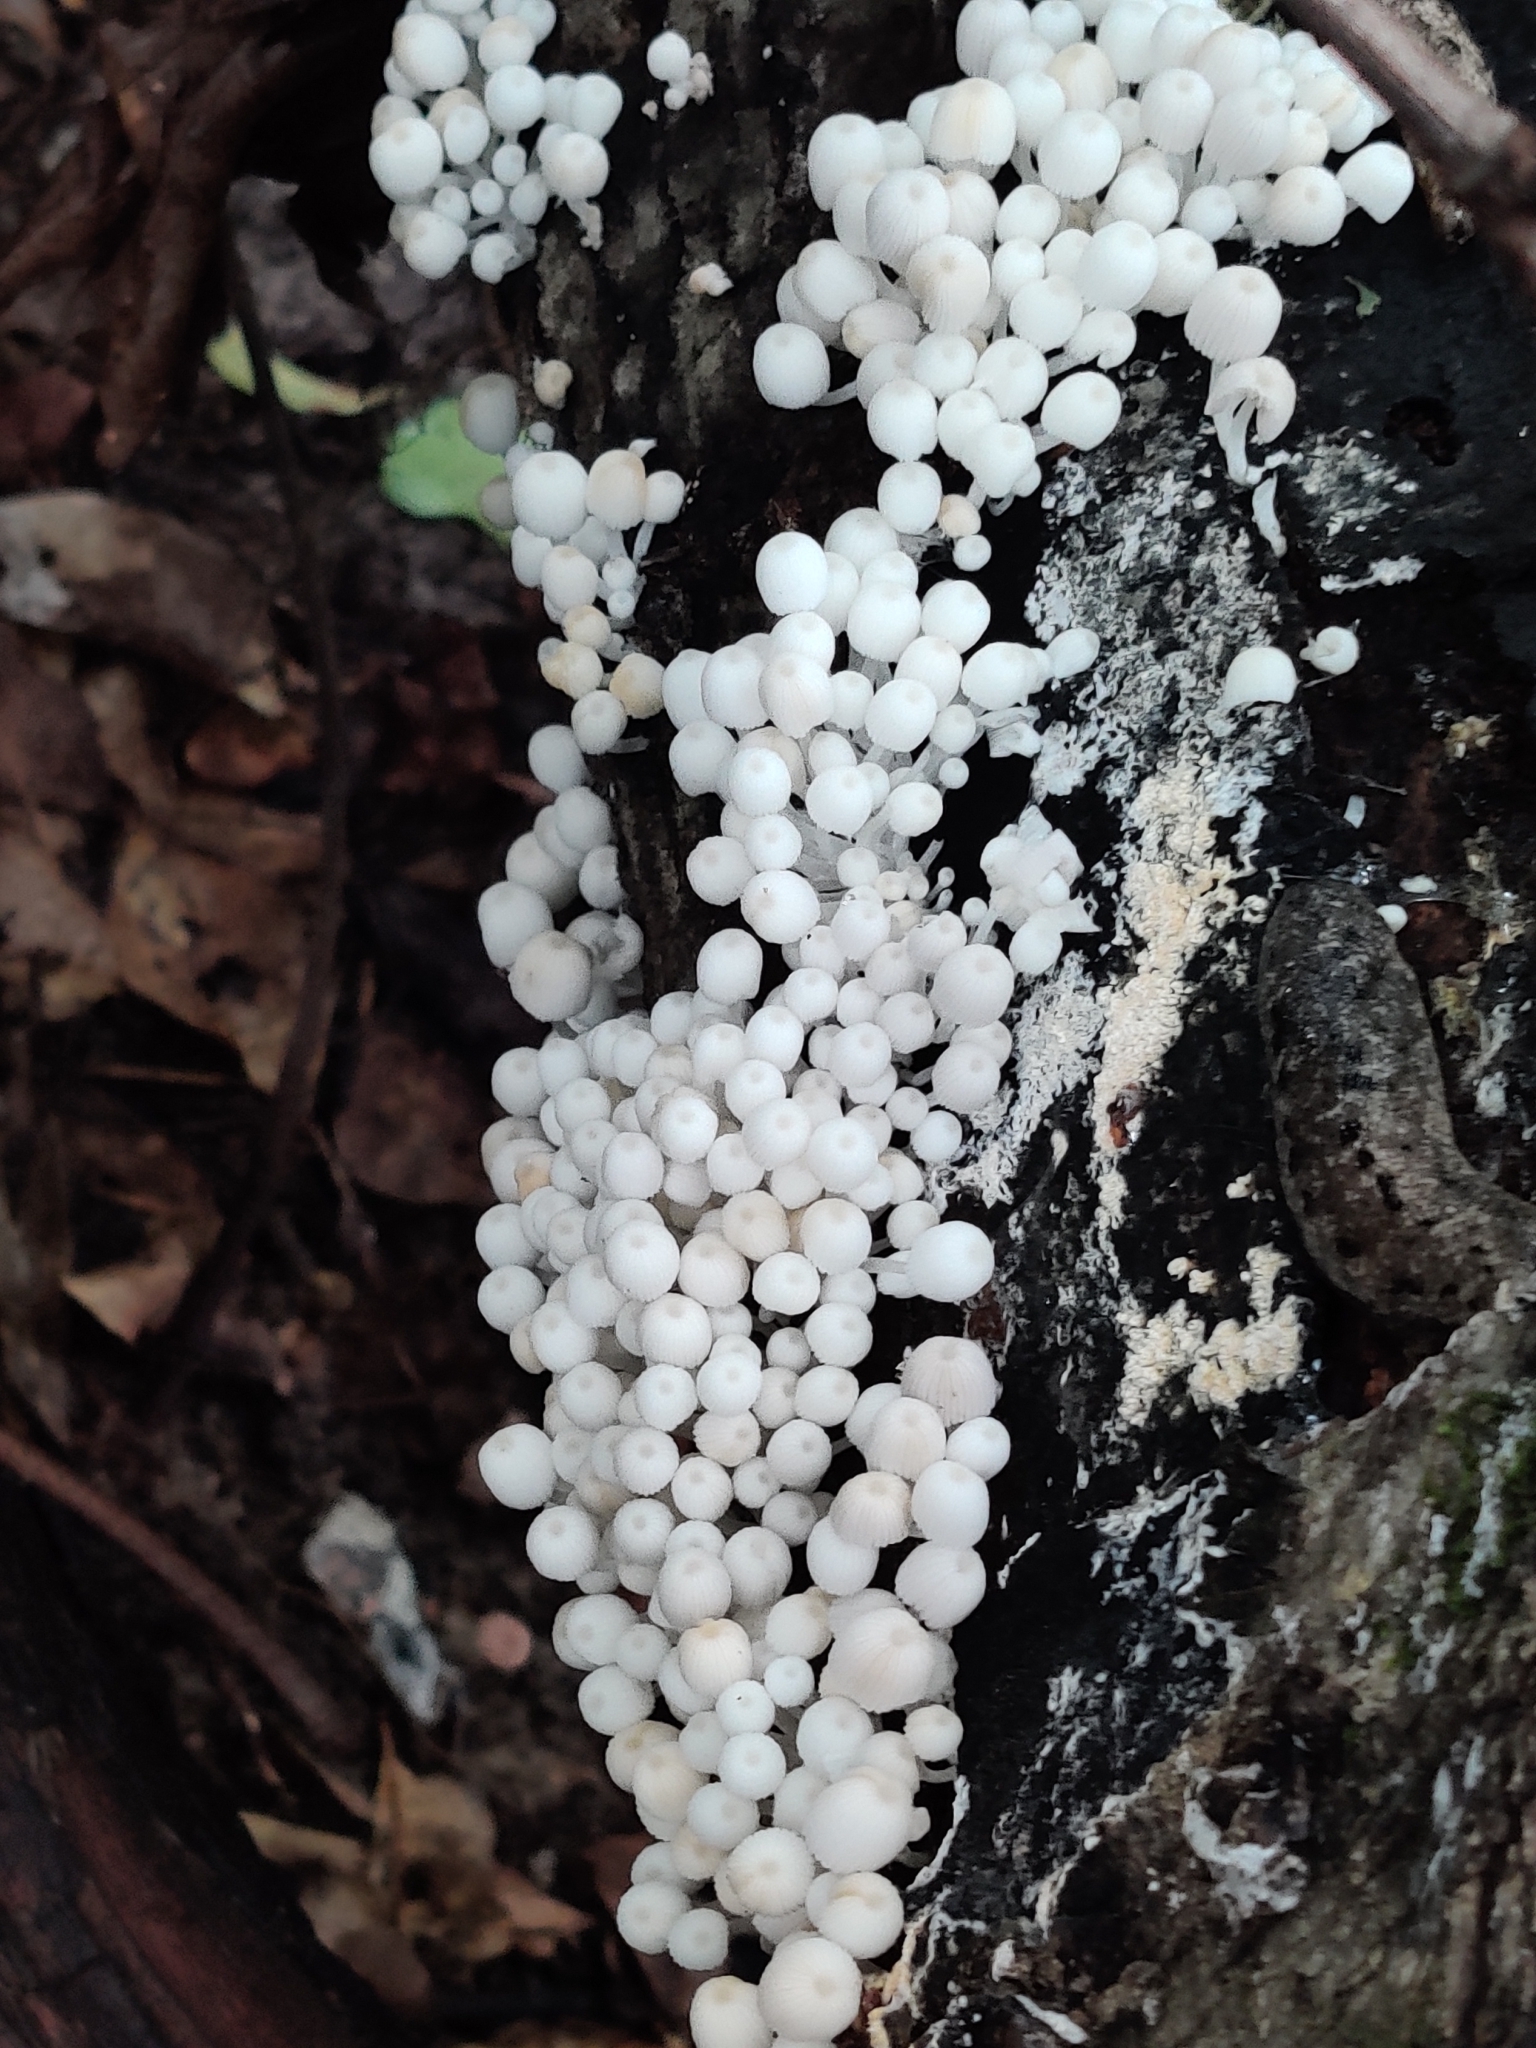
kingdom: Fungi
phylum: Basidiomycota
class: Agaricomycetes
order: Agaricales
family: Psathyrellaceae
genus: Coprinellus
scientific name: Coprinellus disseminatus
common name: Fairies' bonnets
